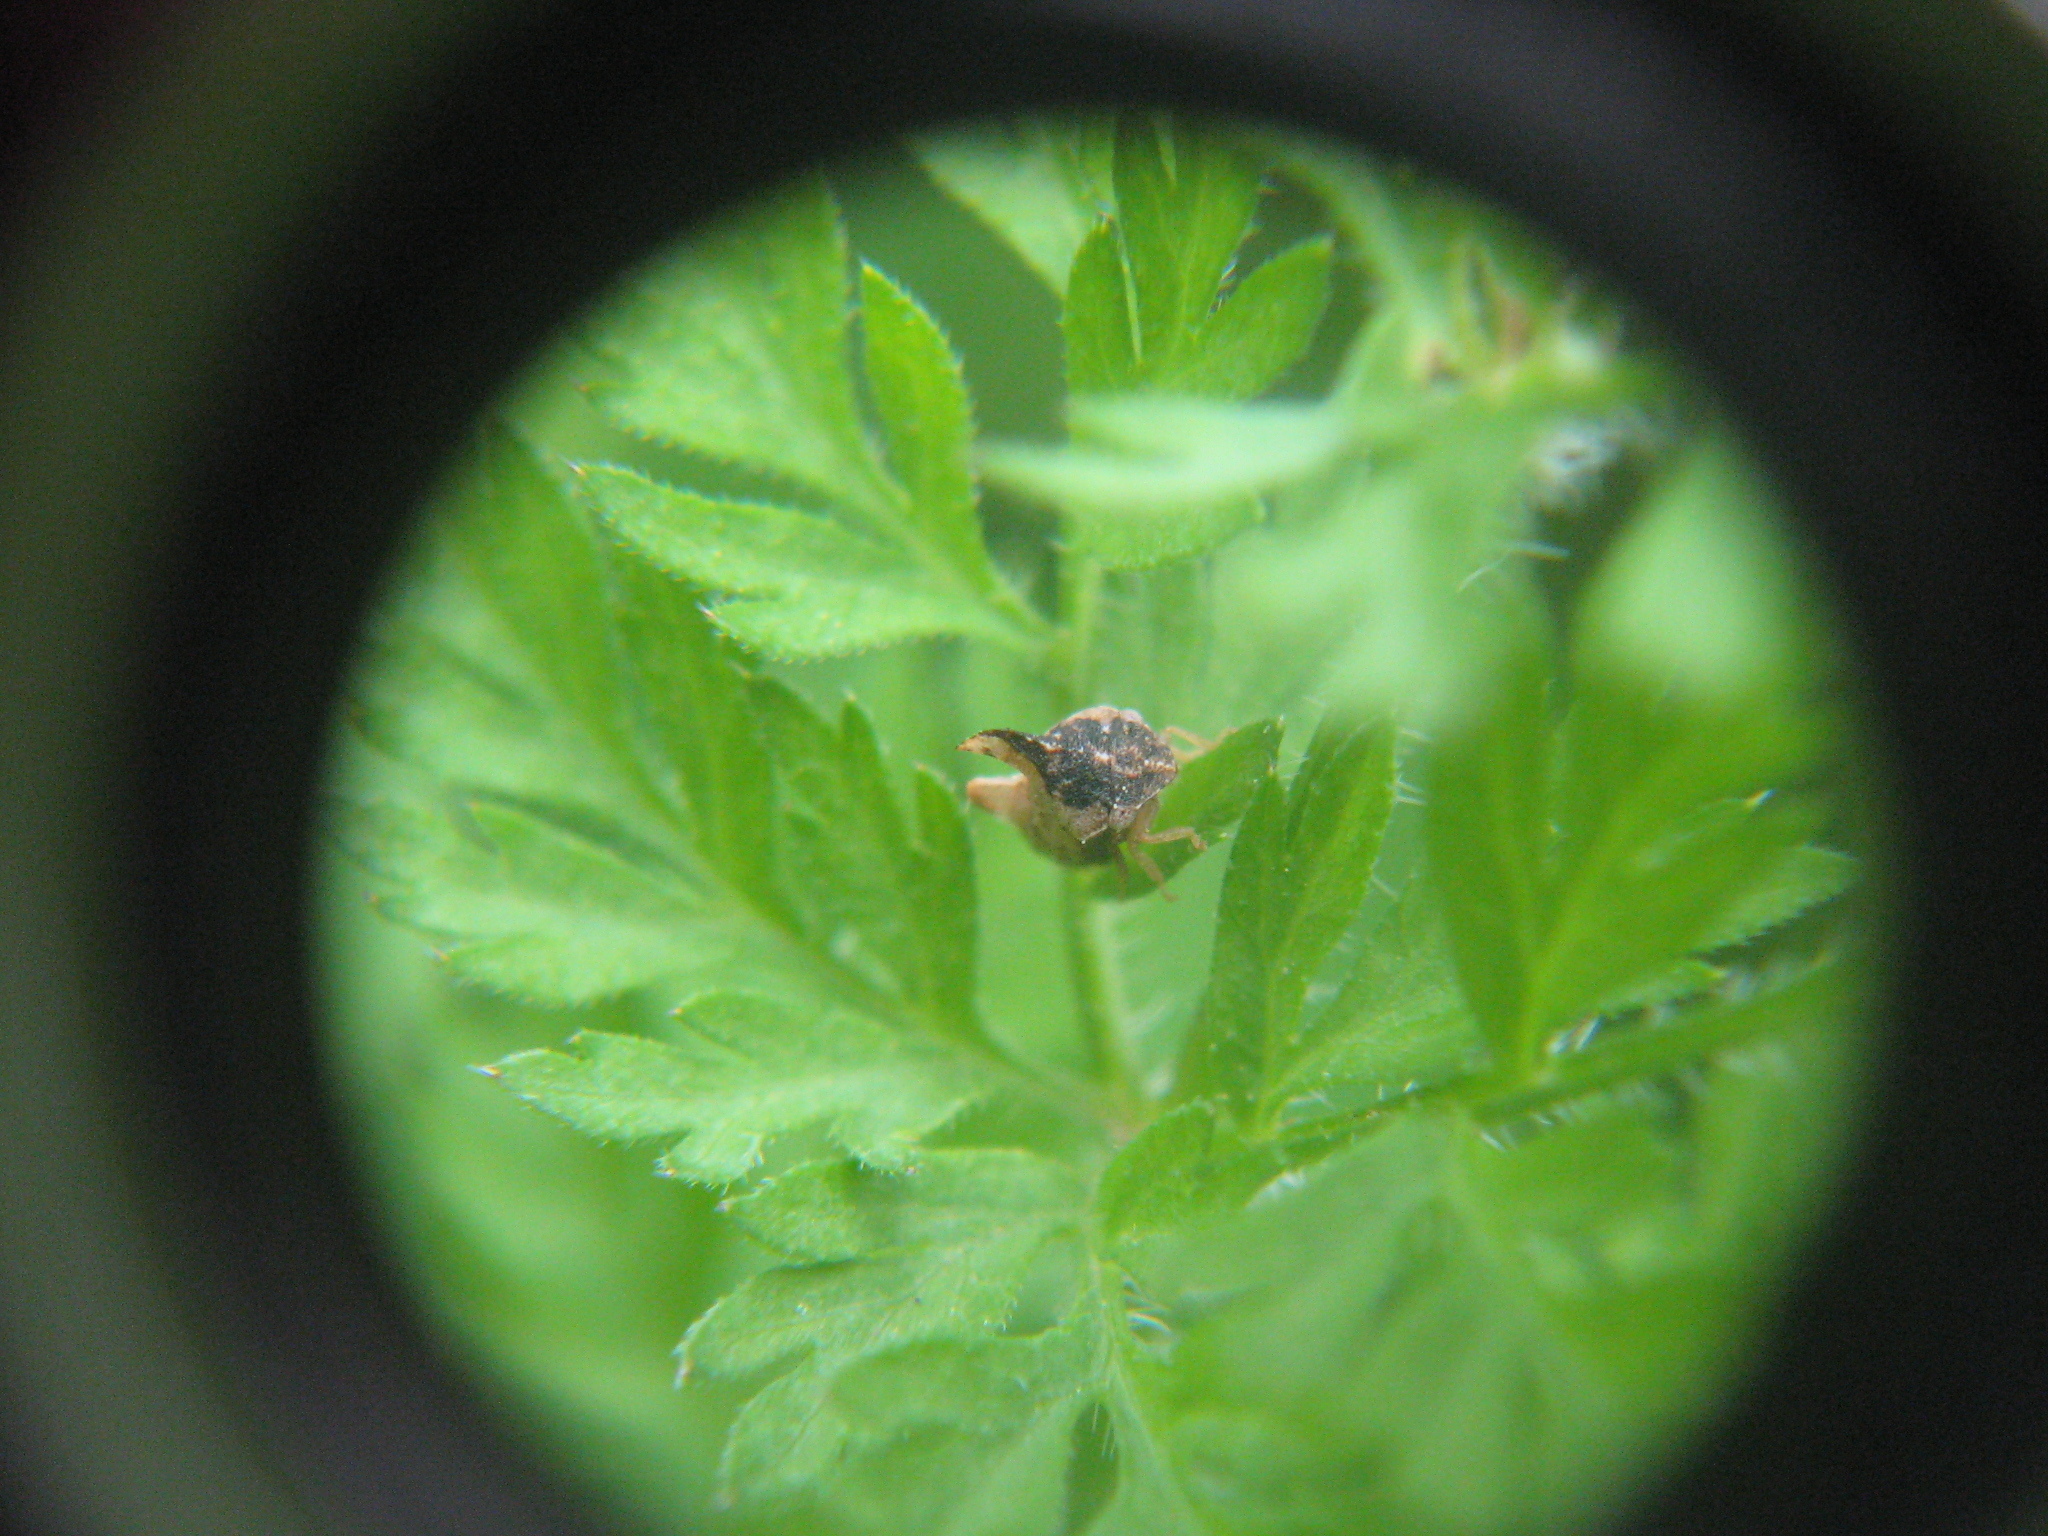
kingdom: Animalia
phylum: Arthropoda
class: Insecta
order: Hemiptera
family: Membracidae
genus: Entylia
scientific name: Entylia carinata
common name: Keeled treehopper
